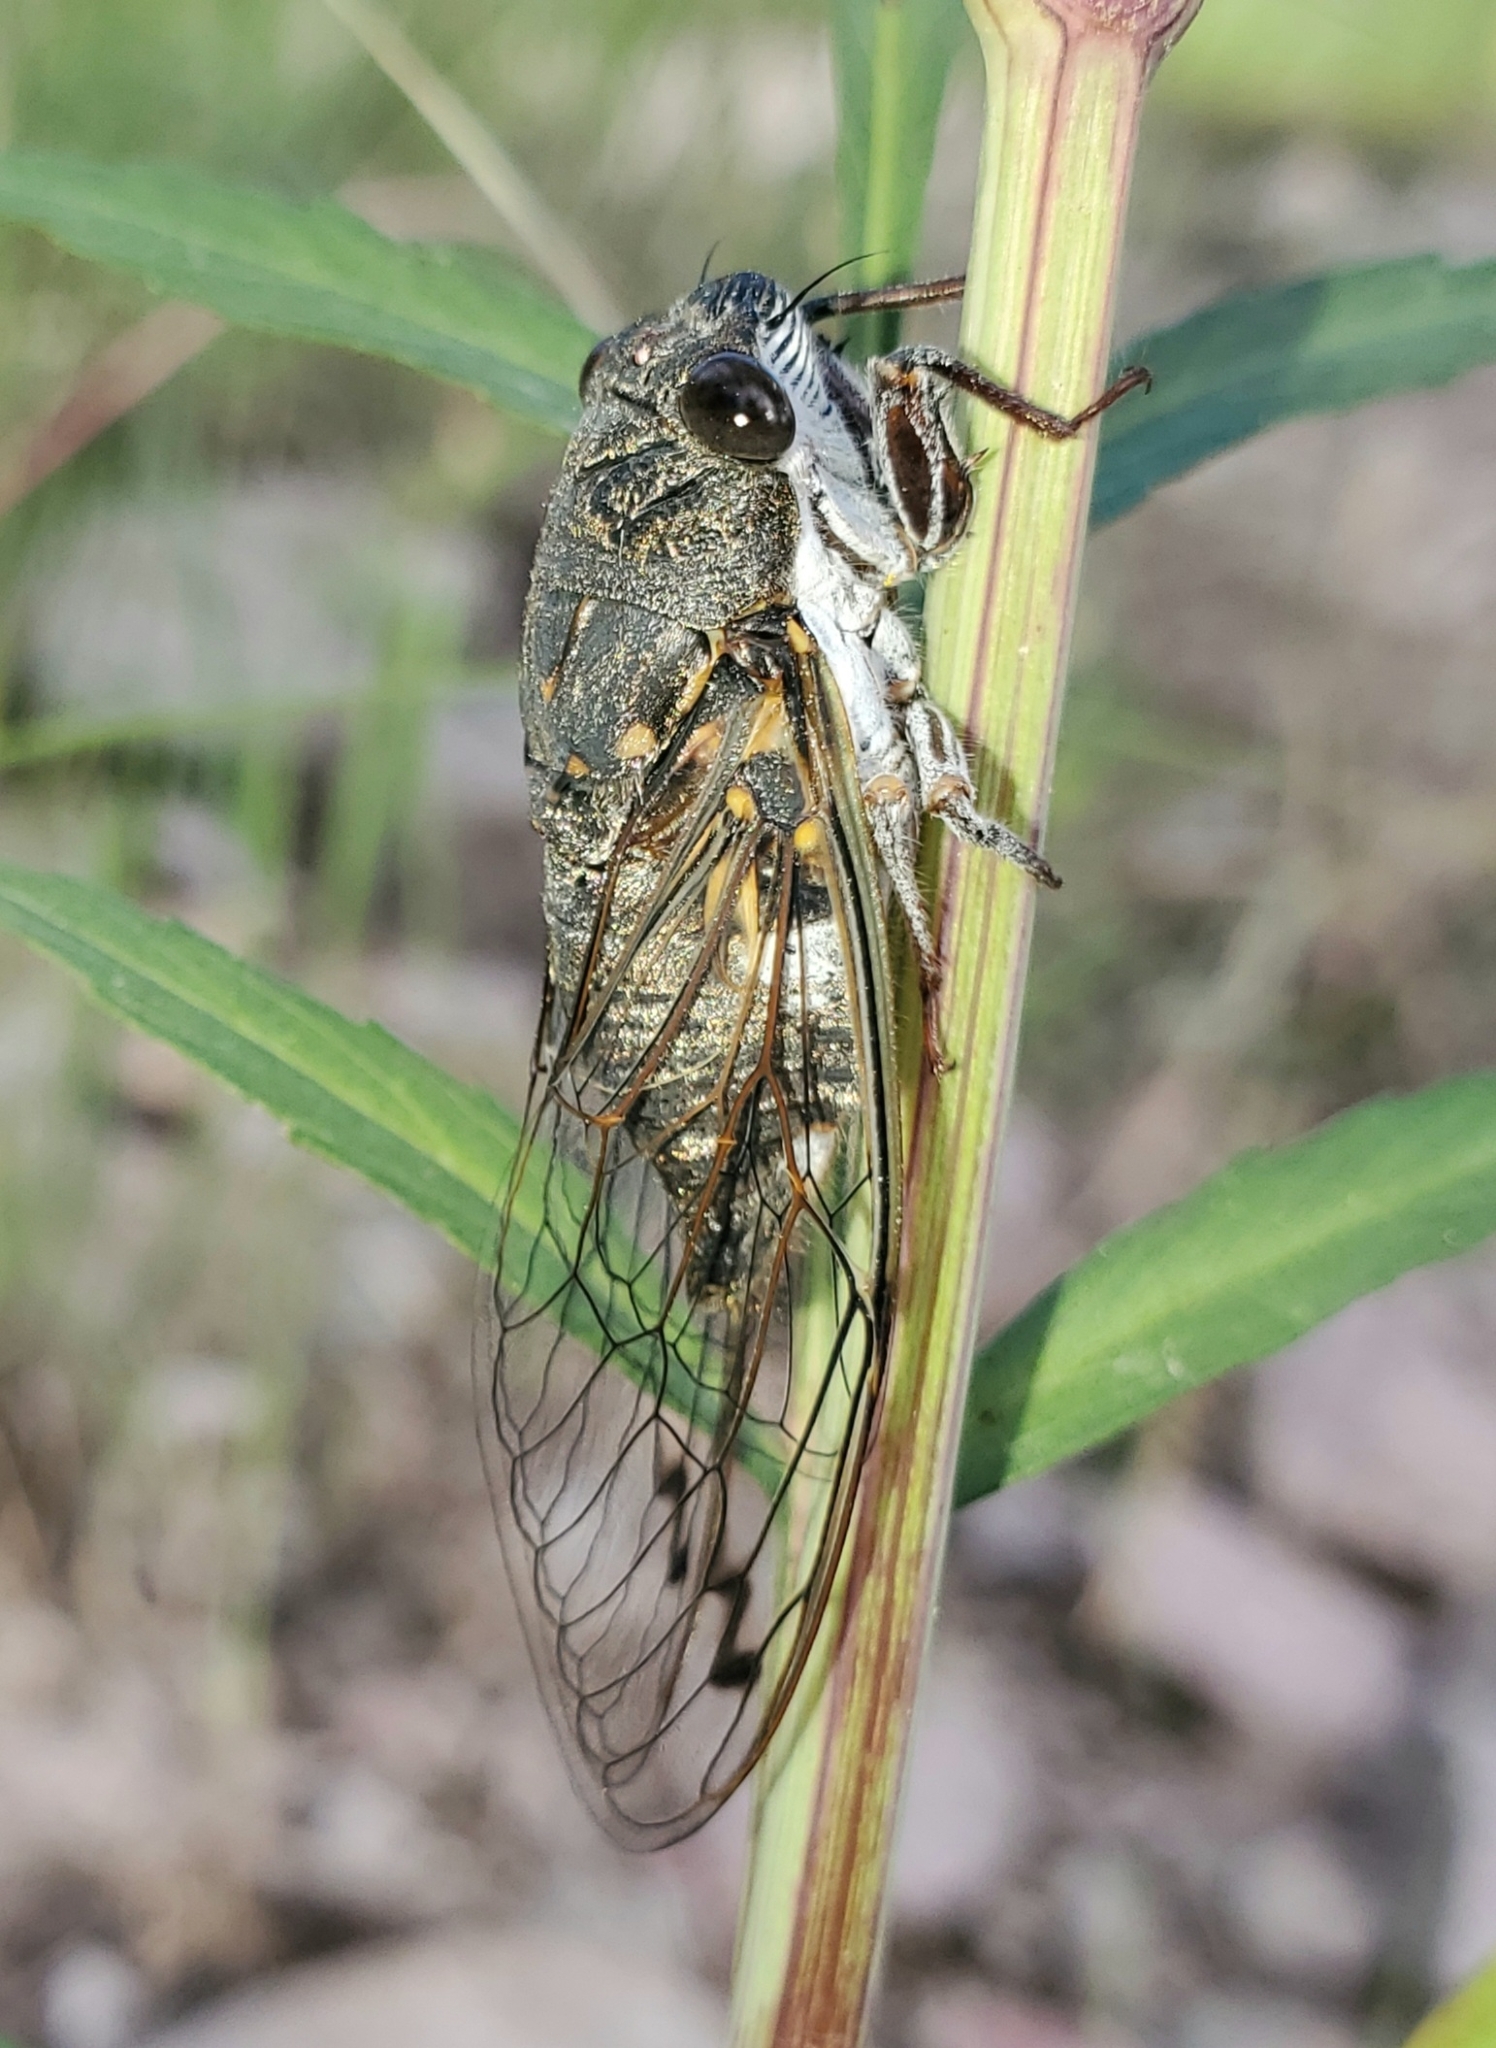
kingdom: Animalia
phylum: Arthropoda
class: Insecta
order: Hemiptera
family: Cicadidae
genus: Hadoa
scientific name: Hadoa parallela
